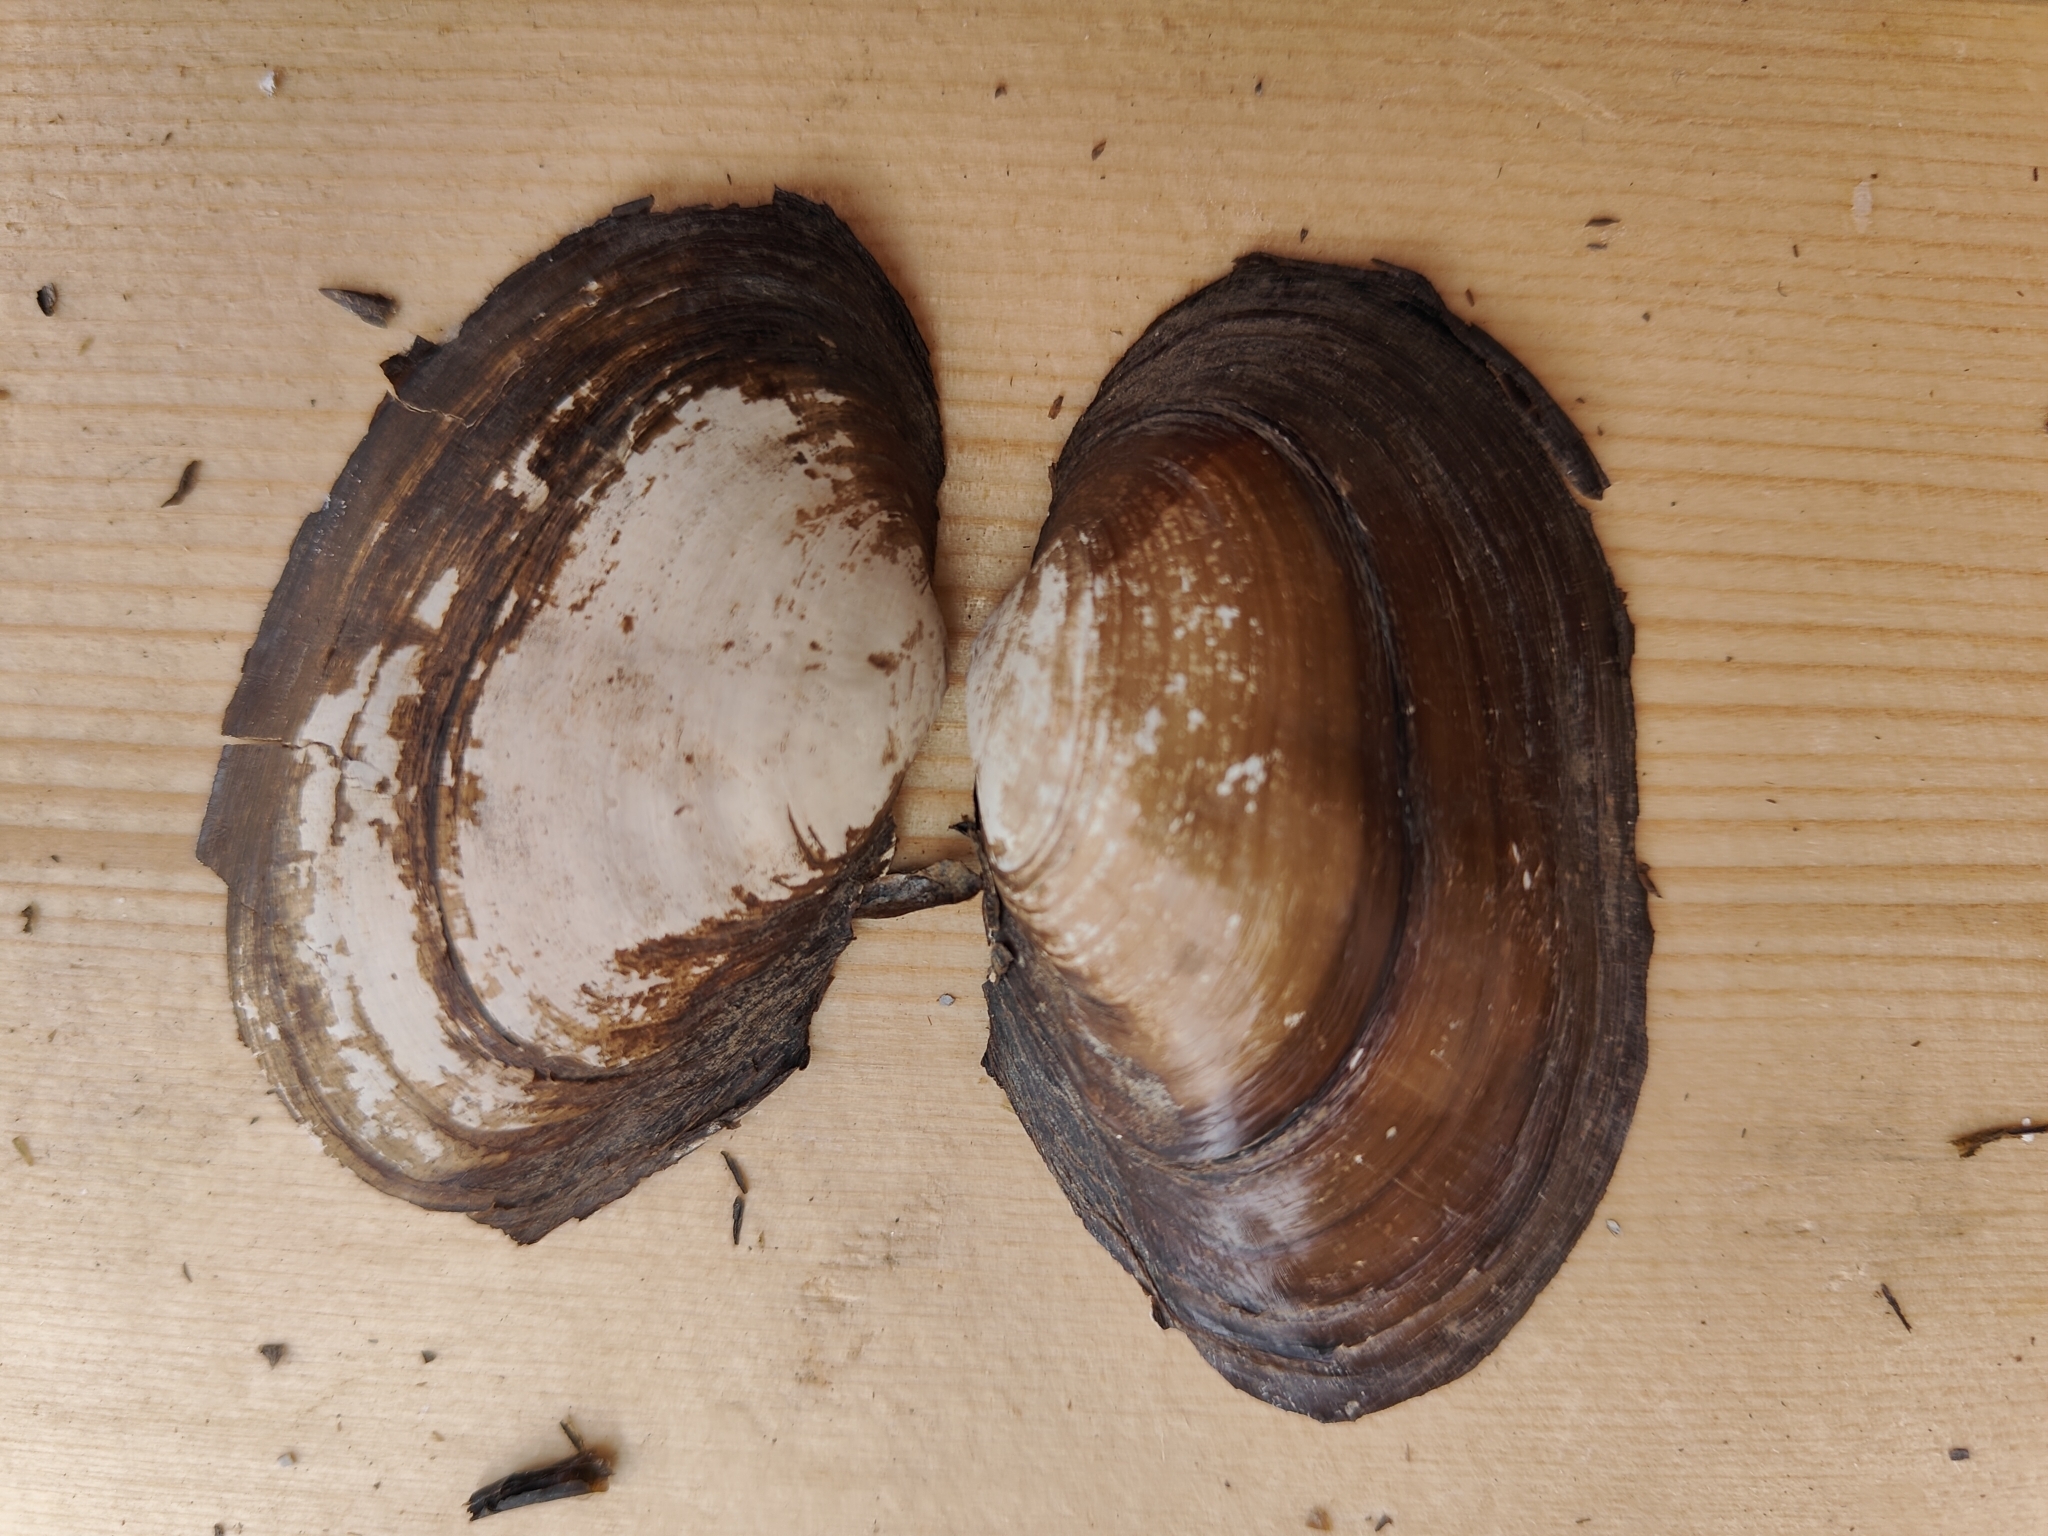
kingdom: Animalia
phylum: Mollusca
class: Bivalvia
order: Unionida
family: Unionidae
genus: Pyganodon
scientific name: Pyganodon grandis
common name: Giant floater
